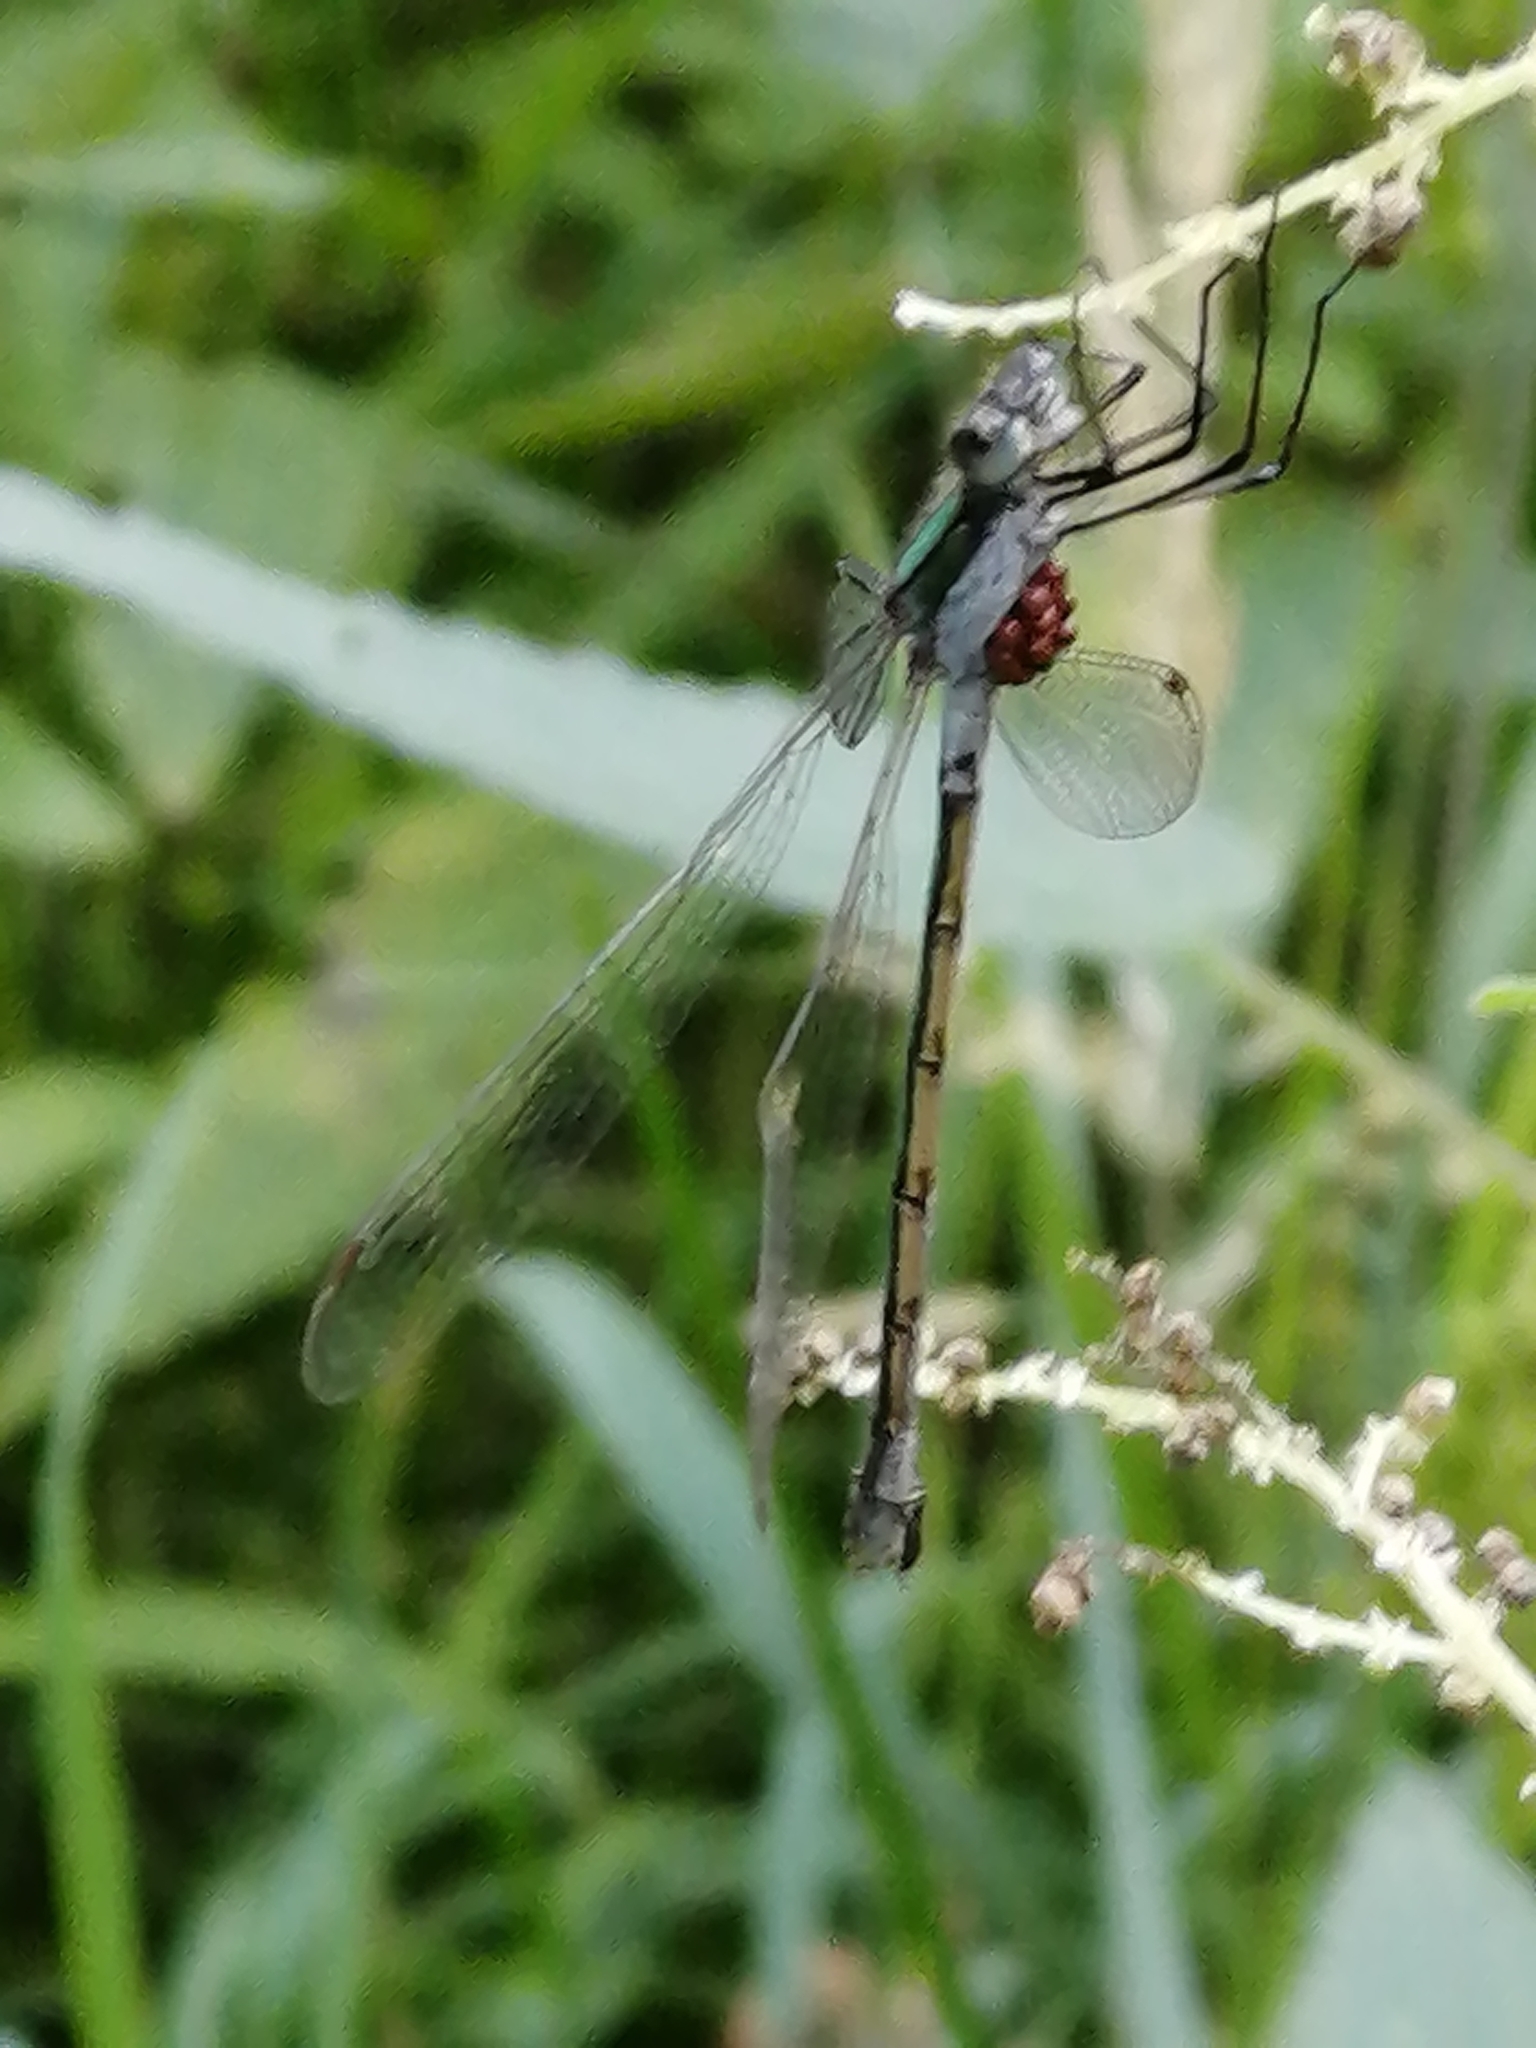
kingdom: Animalia
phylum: Arthropoda
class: Insecta
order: Odonata
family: Lestidae
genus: Lestes
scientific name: Lestes dryas
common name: Scarce emerald damselfly
